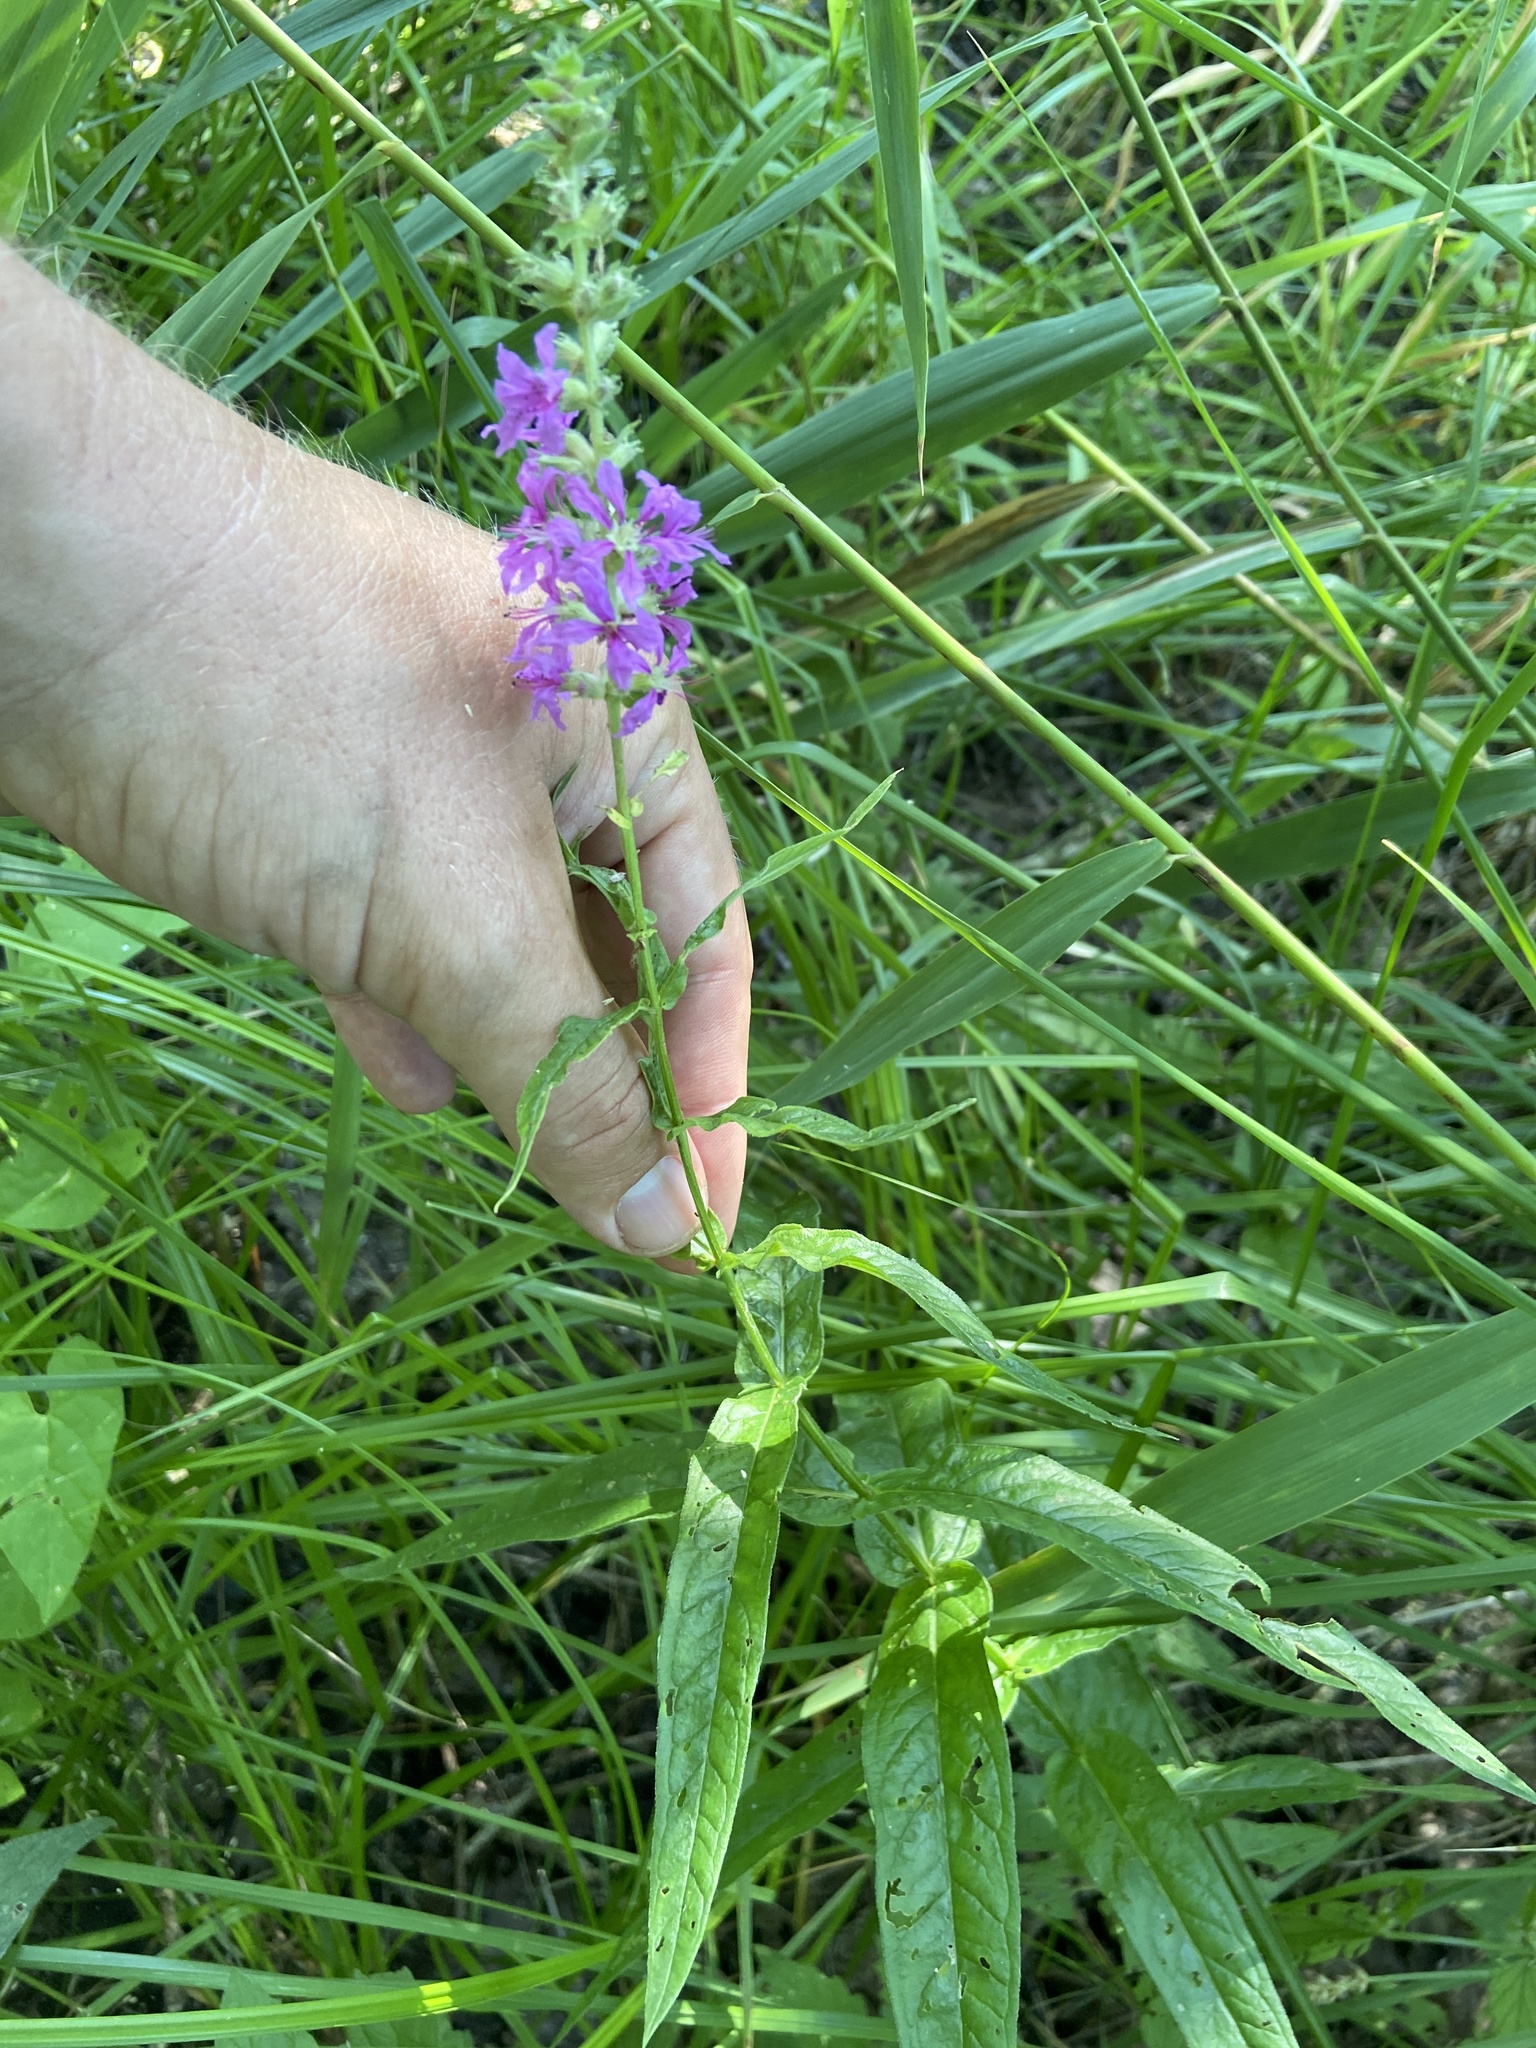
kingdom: Plantae
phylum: Tracheophyta
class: Magnoliopsida
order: Myrtales
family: Lythraceae
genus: Lythrum
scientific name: Lythrum salicaria
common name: Purple loosestrife
